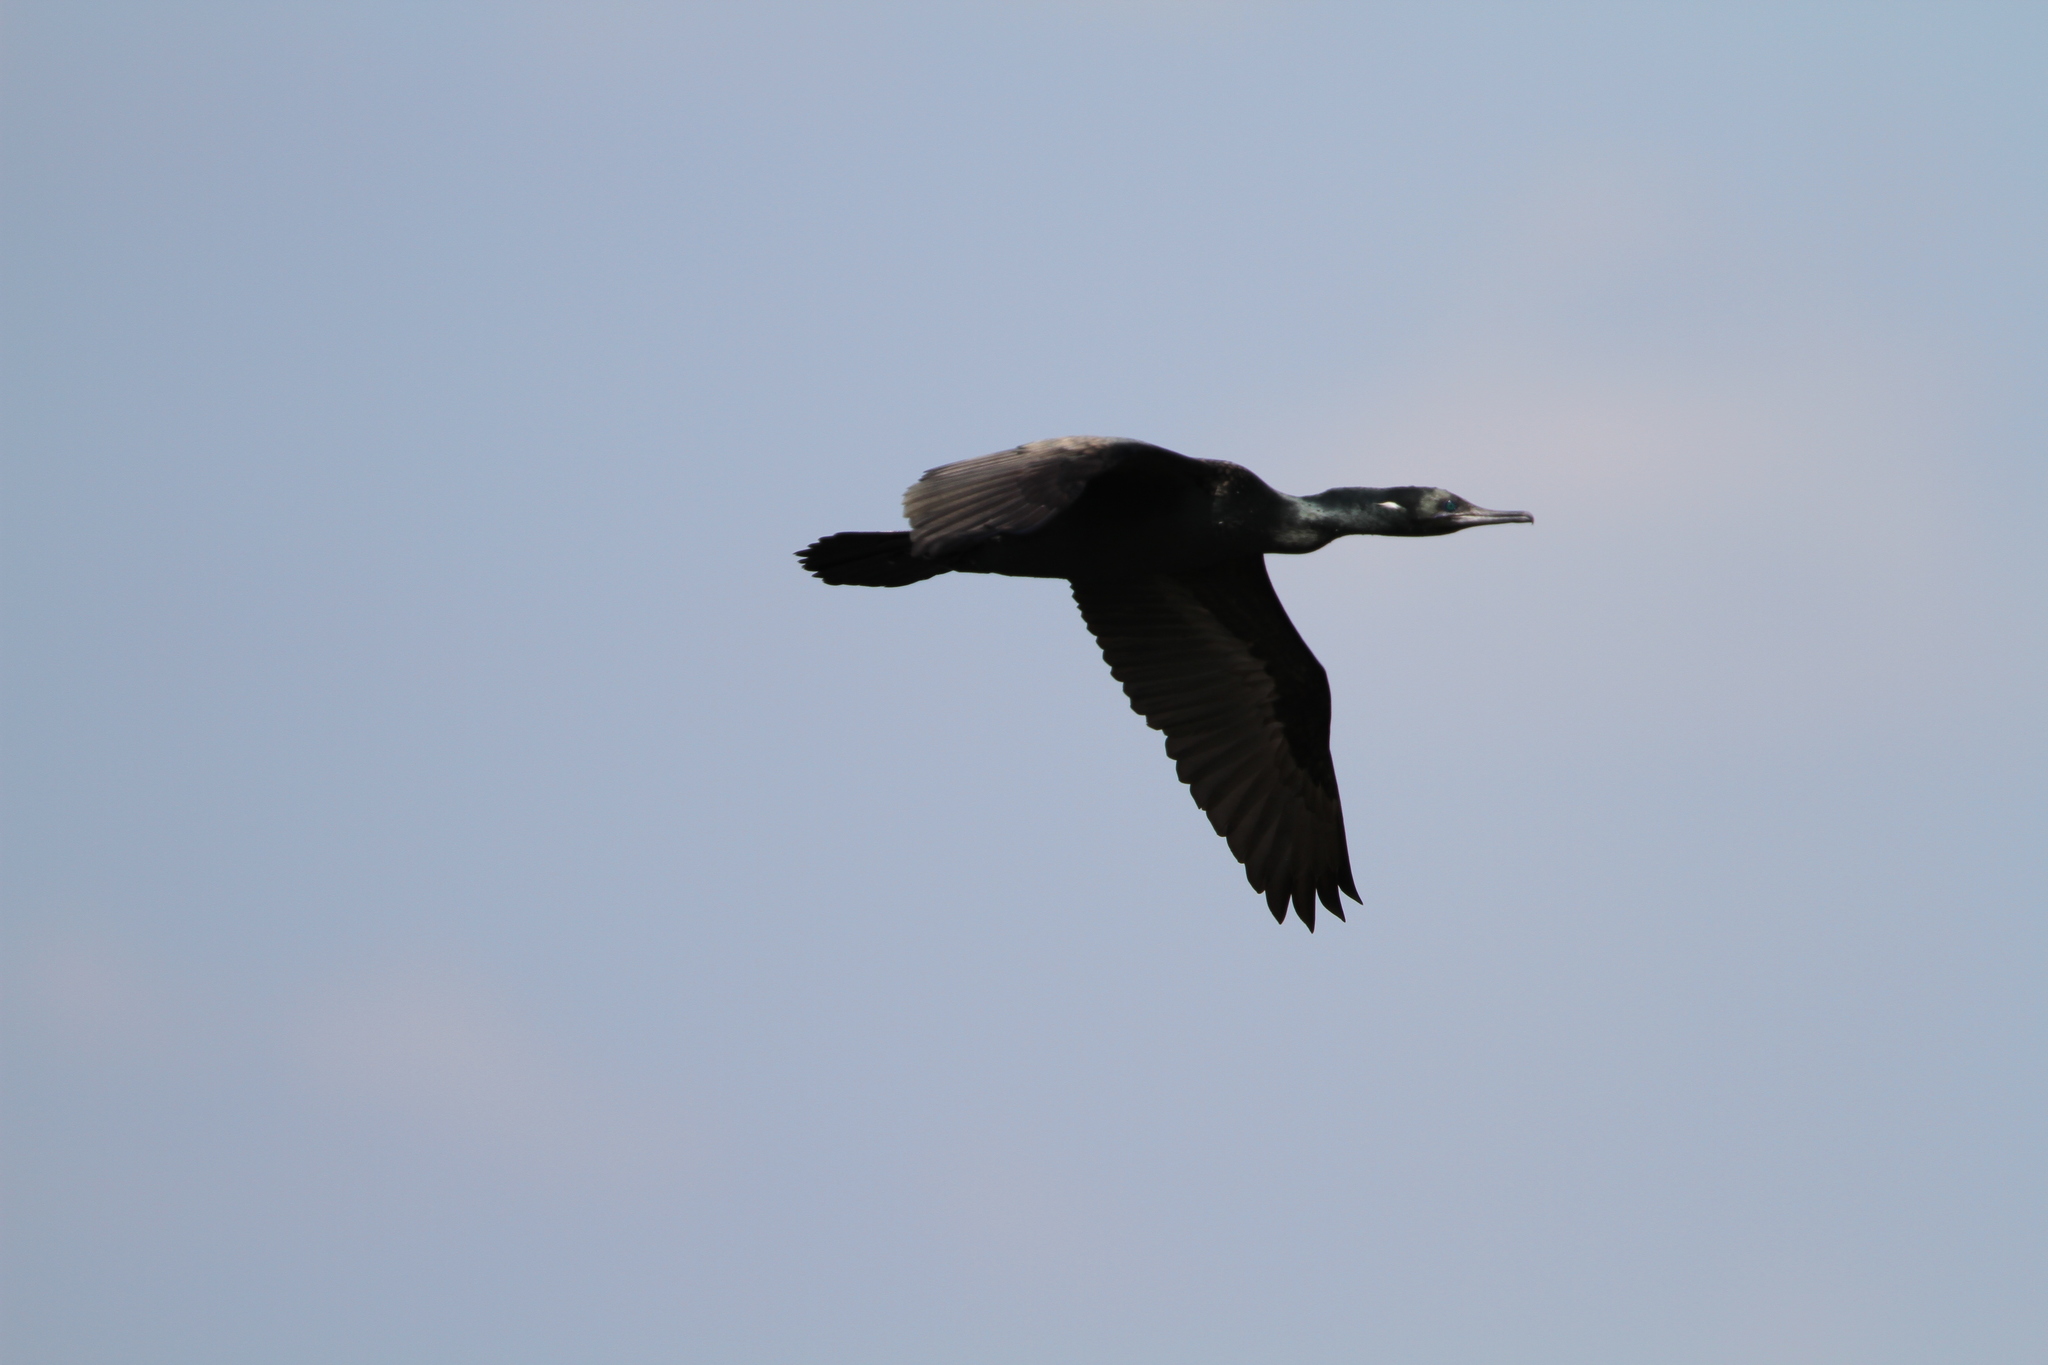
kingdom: Animalia
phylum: Chordata
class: Aves
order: Suliformes
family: Phalacrocoracidae
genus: Phalacrocorax
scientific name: Phalacrocorax fuscicollis
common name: Indian cormorant
